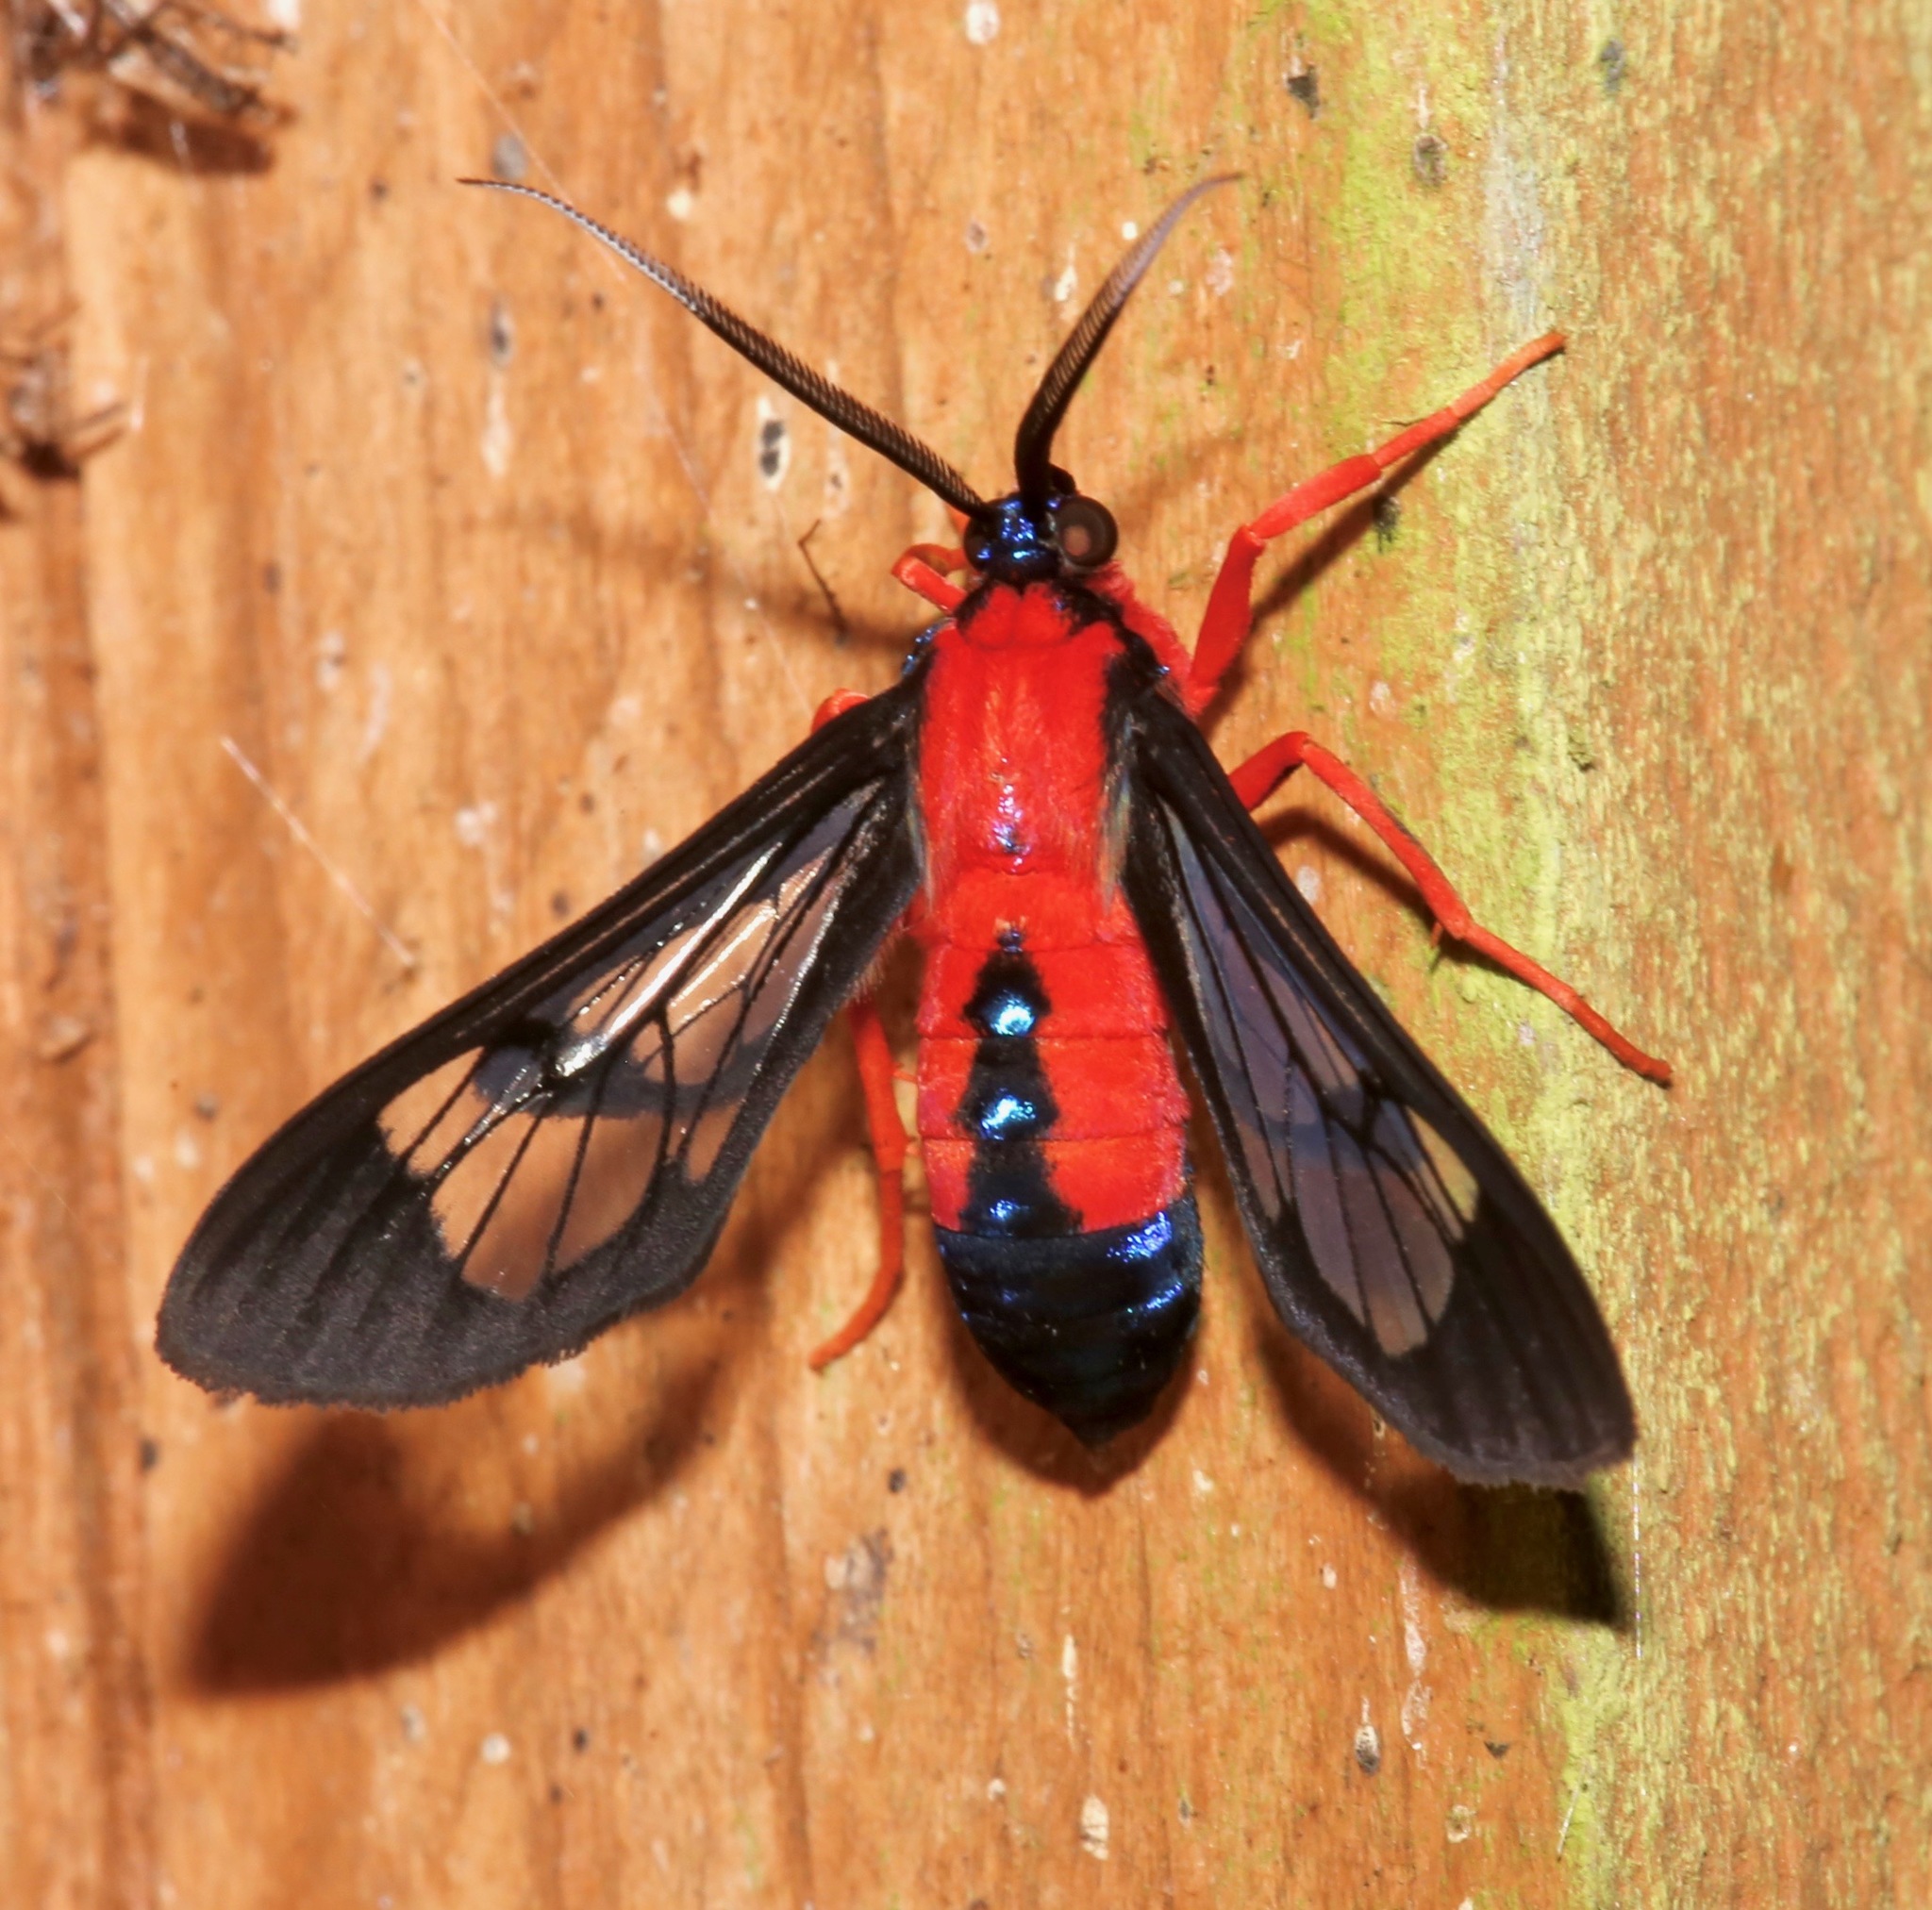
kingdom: Animalia
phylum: Arthropoda
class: Insecta
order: Lepidoptera
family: Erebidae
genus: Cosmosoma
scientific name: Cosmosoma myrodora
